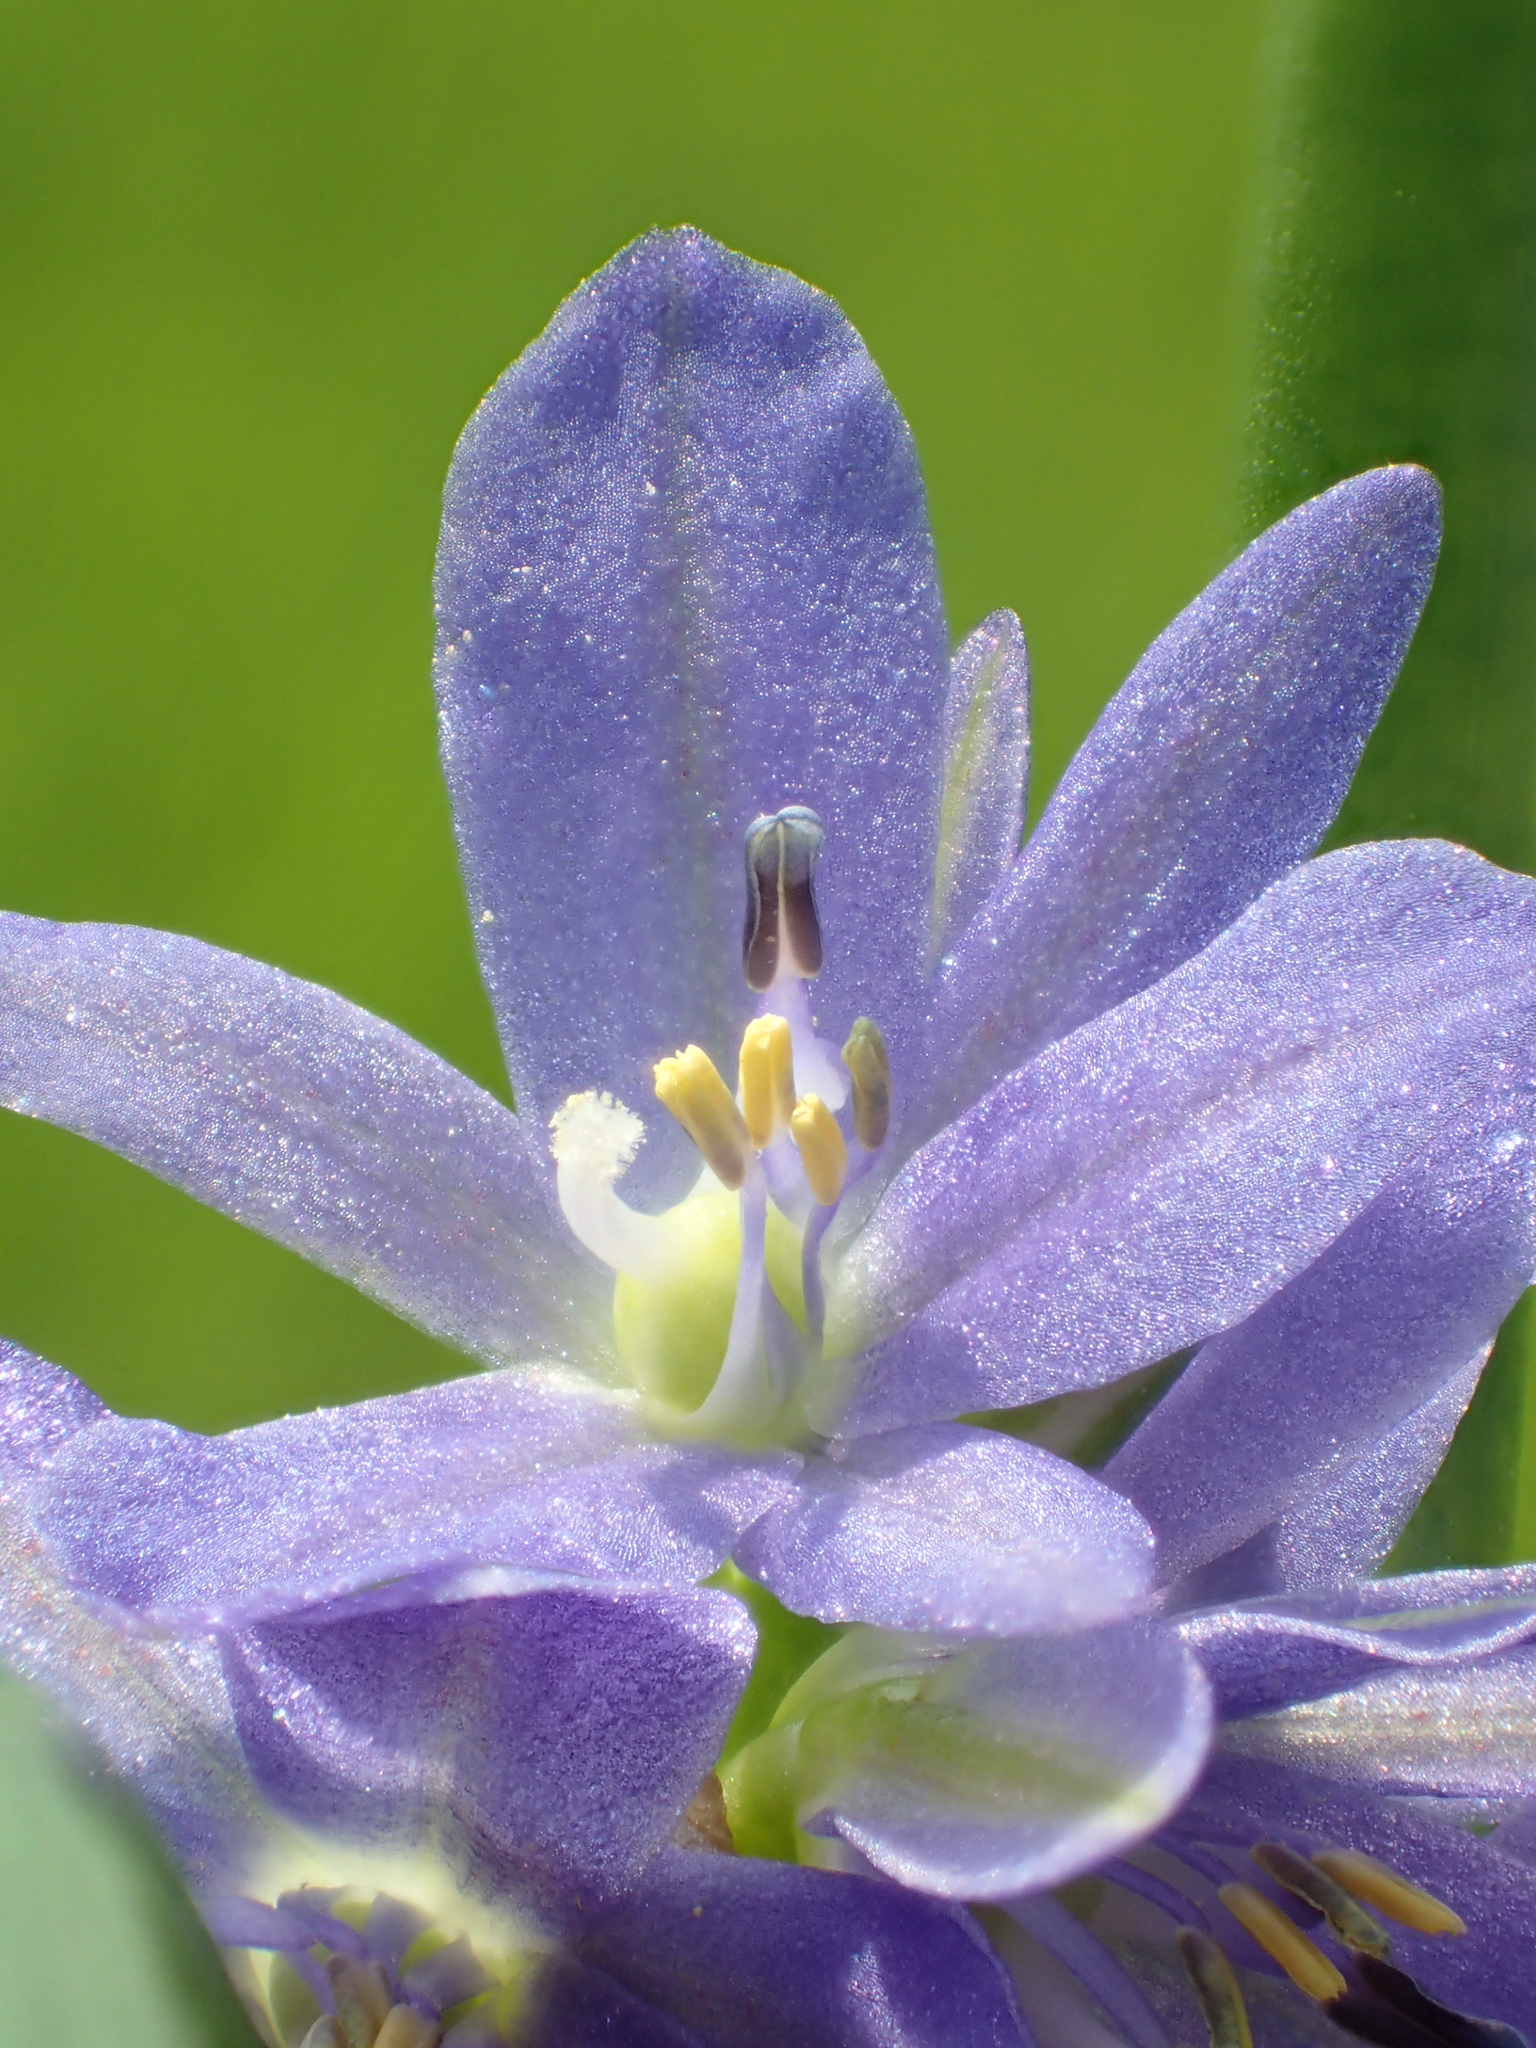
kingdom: Plantae
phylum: Tracheophyta
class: Liliopsida
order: Commelinales
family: Pontederiaceae
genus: Pontederia
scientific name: Pontederia vaginalis
